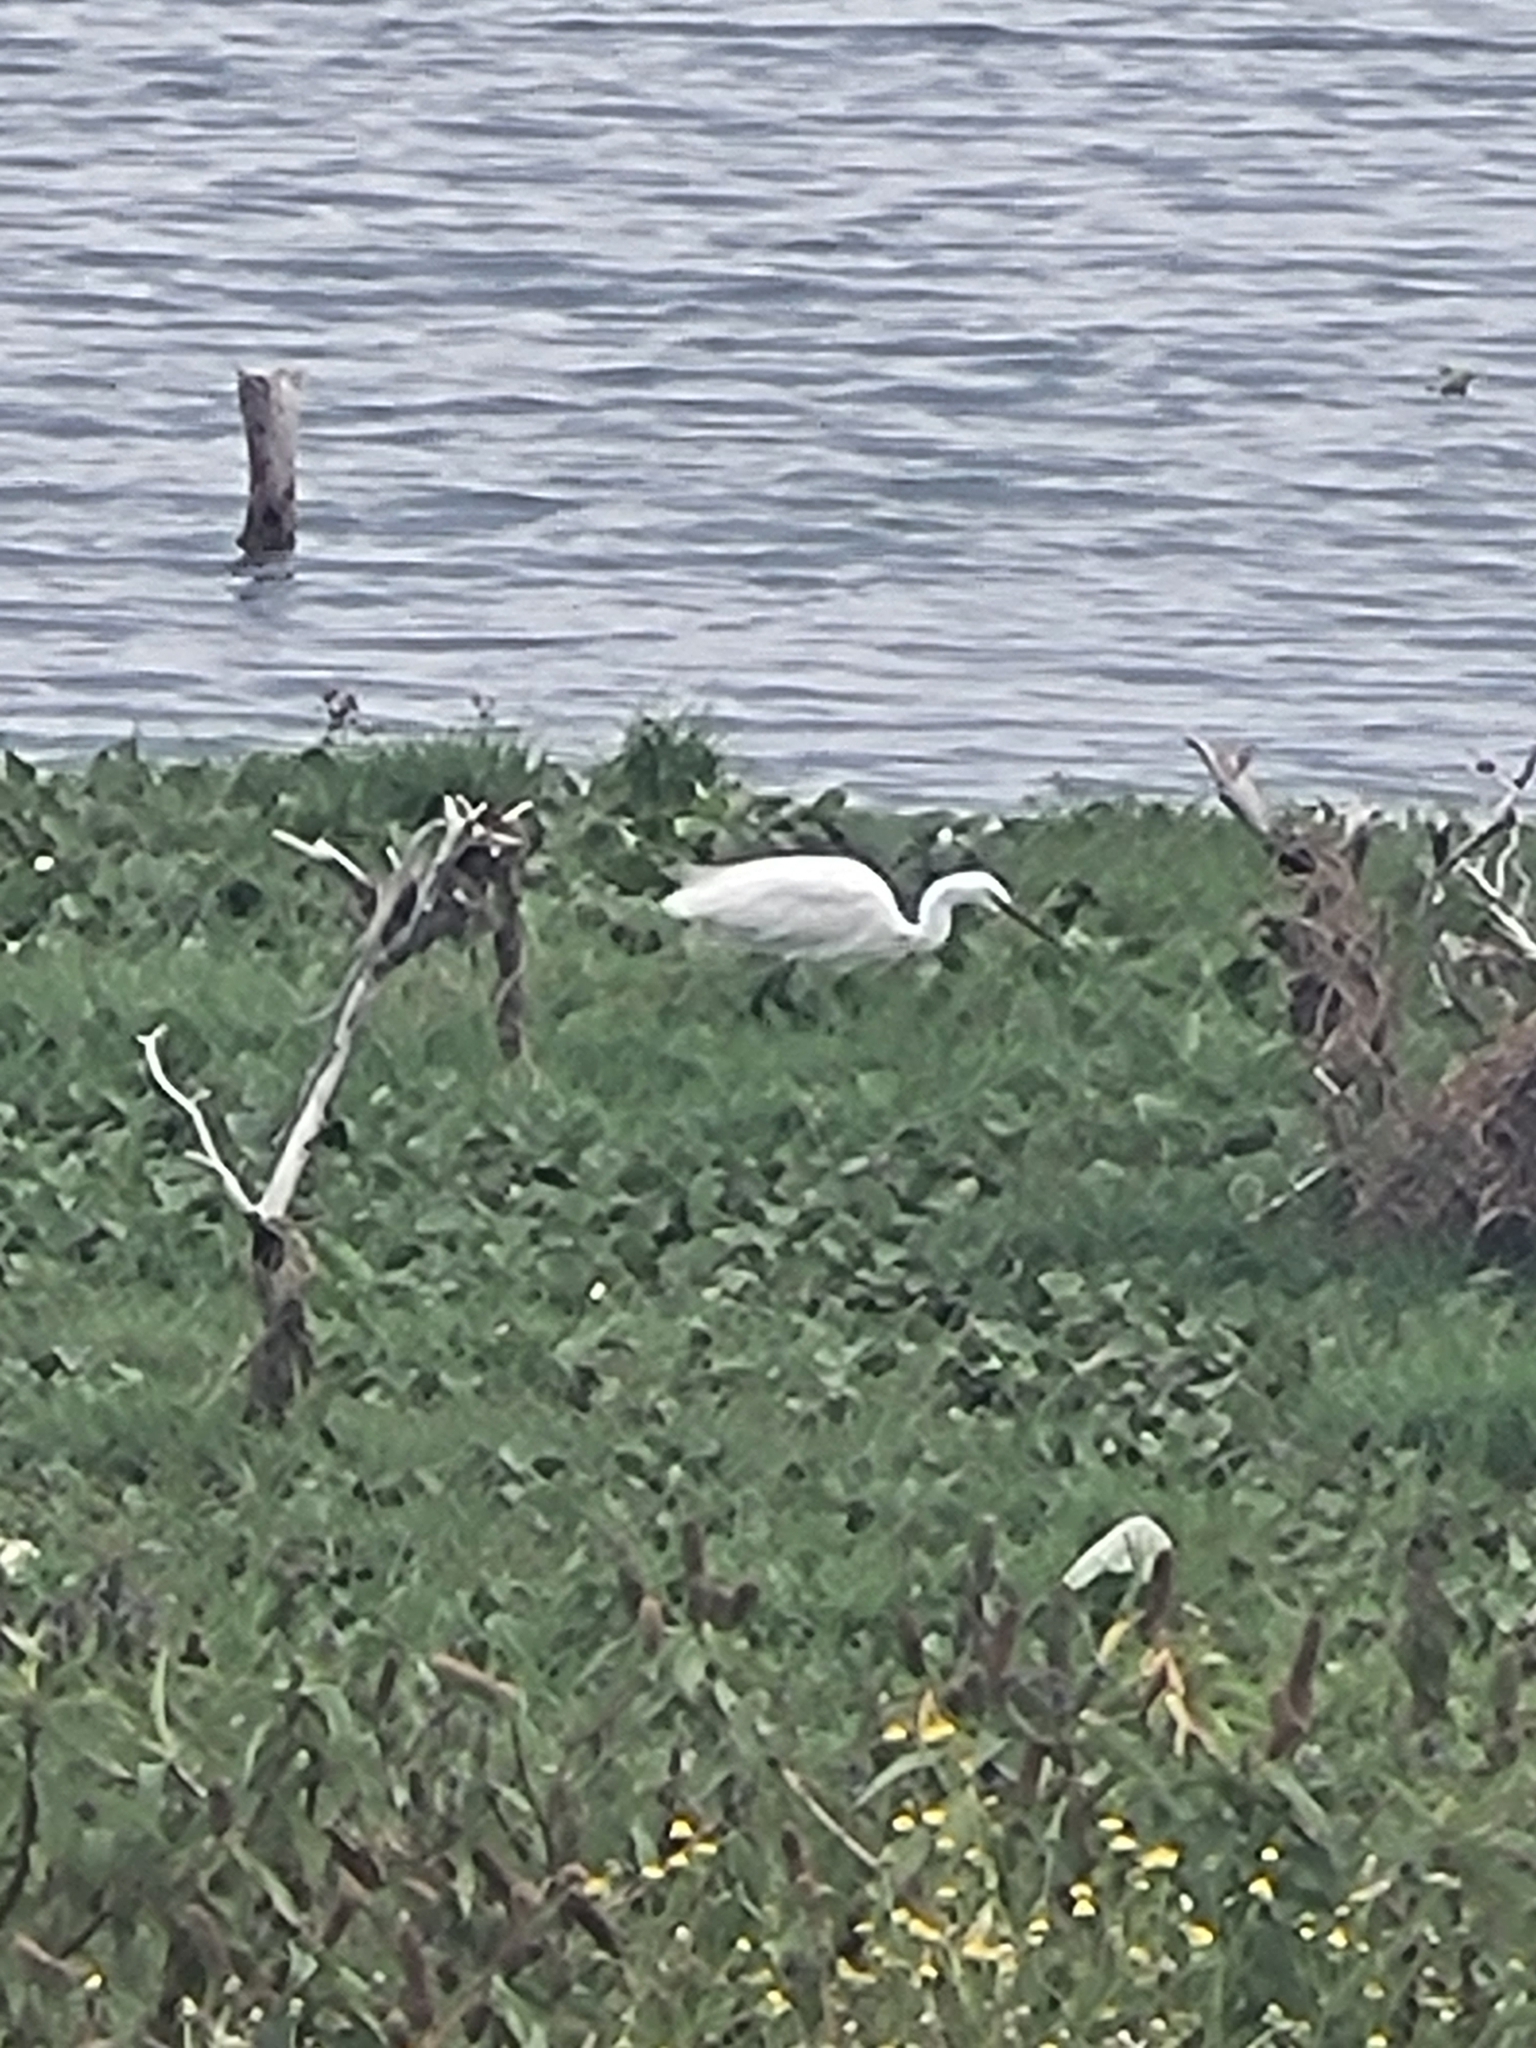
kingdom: Animalia
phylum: Chordata
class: Aves
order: Pelecaniformes
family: Ardeidae
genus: Egretta
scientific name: Egretta garzetta
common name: Little egret
